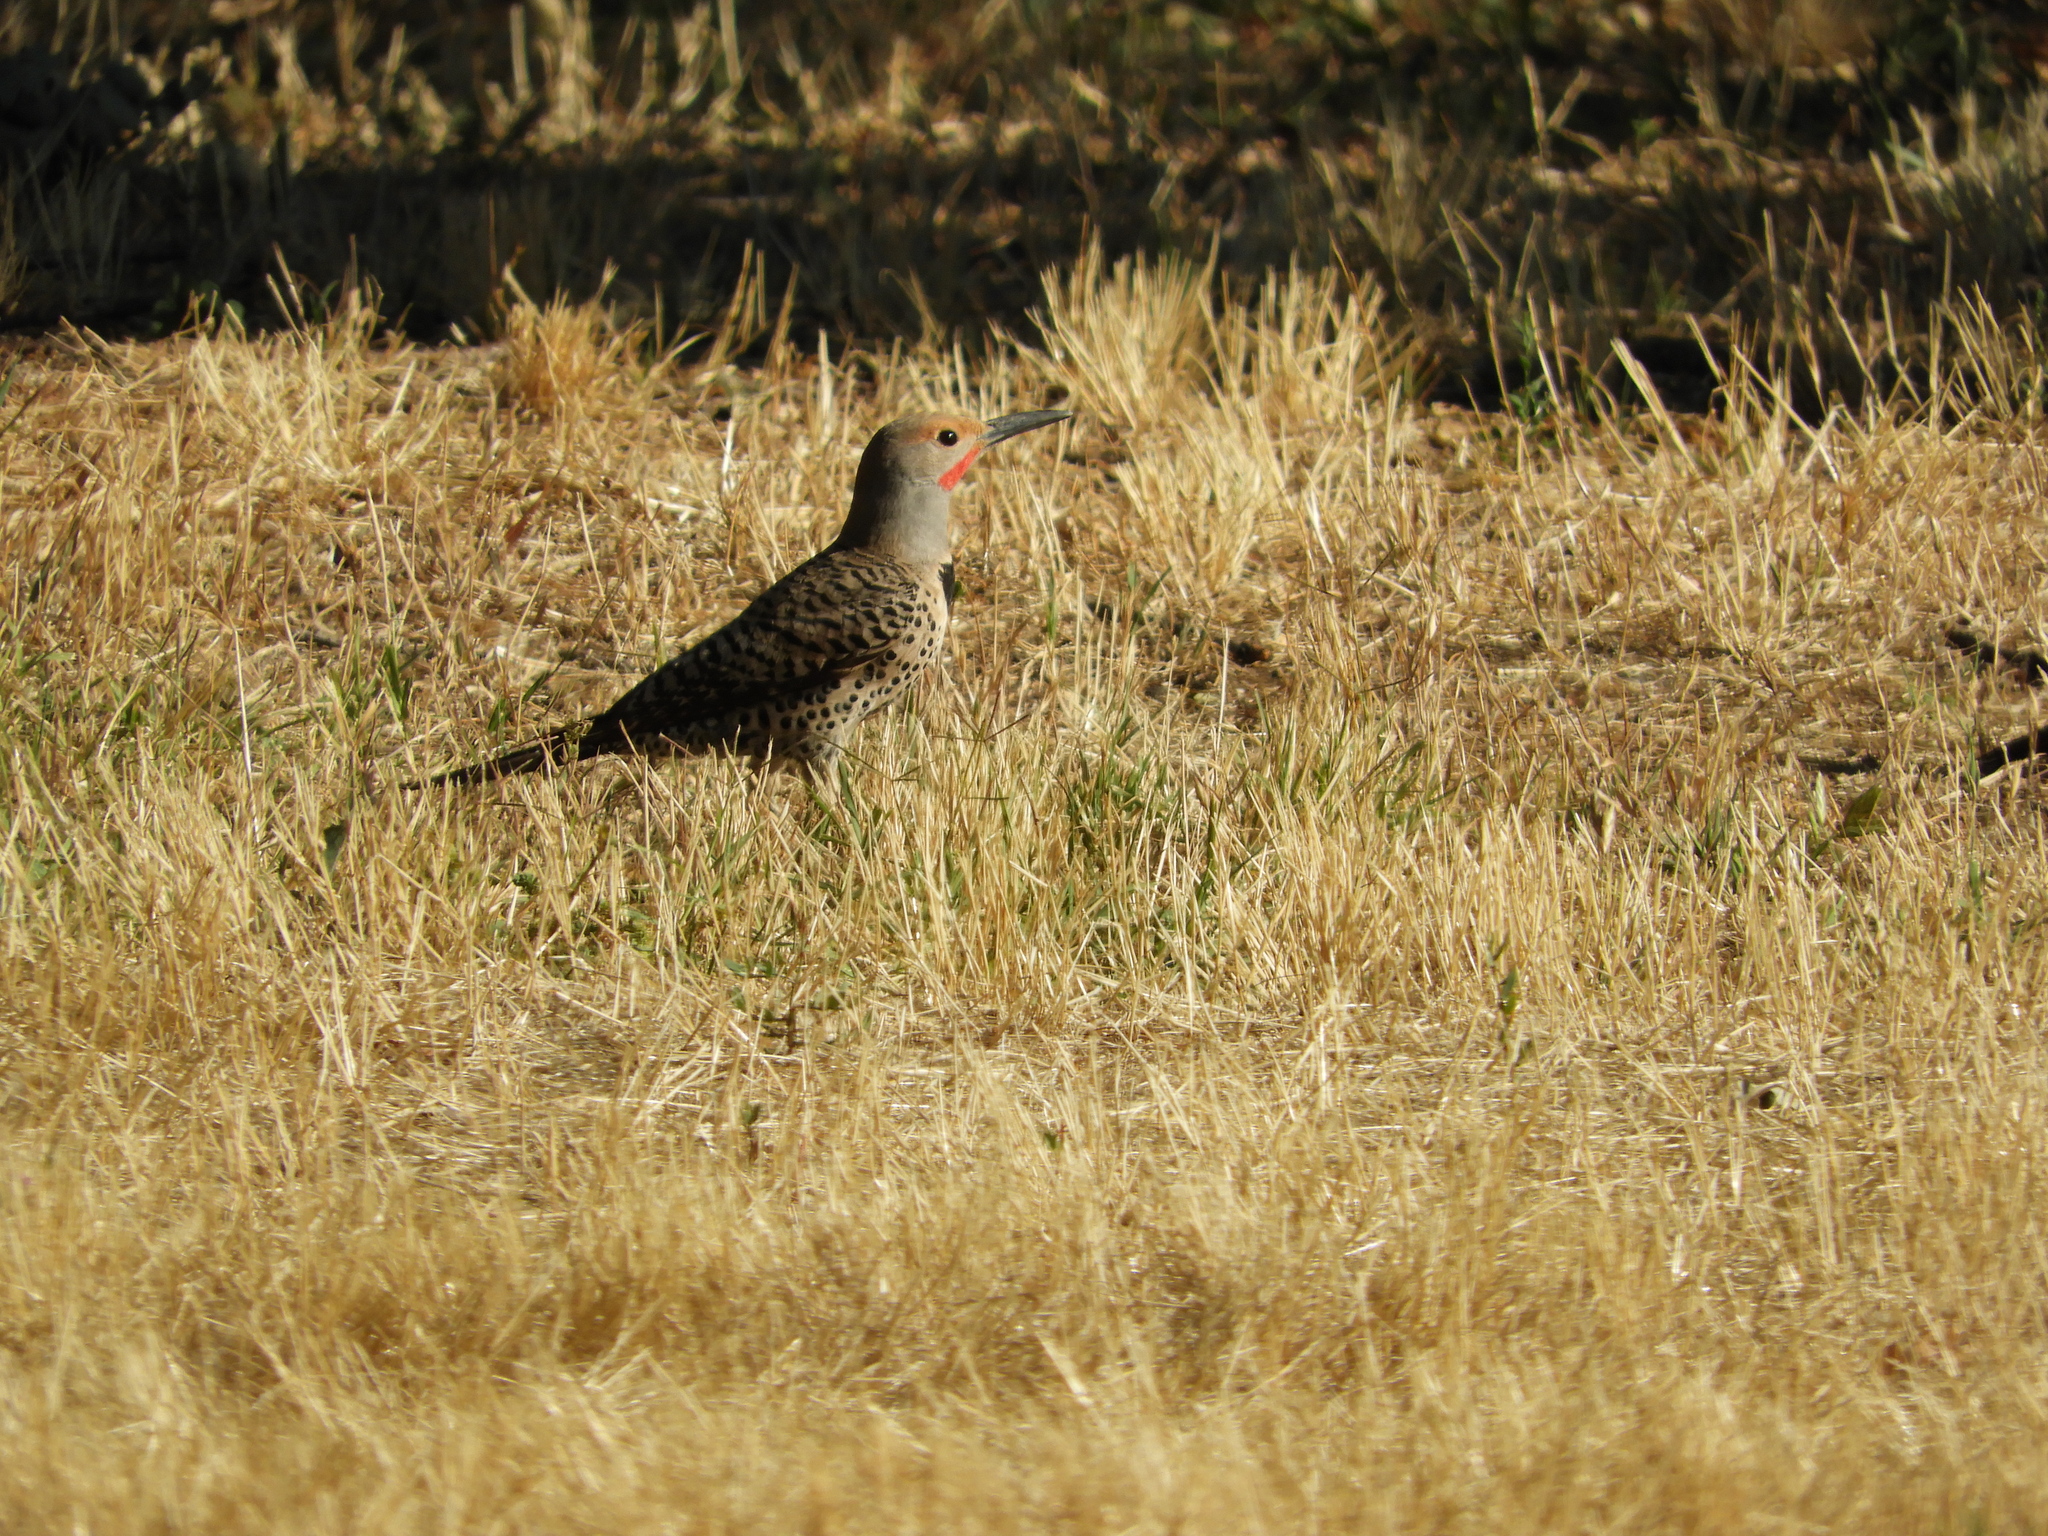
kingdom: Animalia
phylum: Chordata
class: Aves
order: Piciformes
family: Picidae
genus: Colaptes
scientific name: Colaptes auratus
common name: Northern flicker
